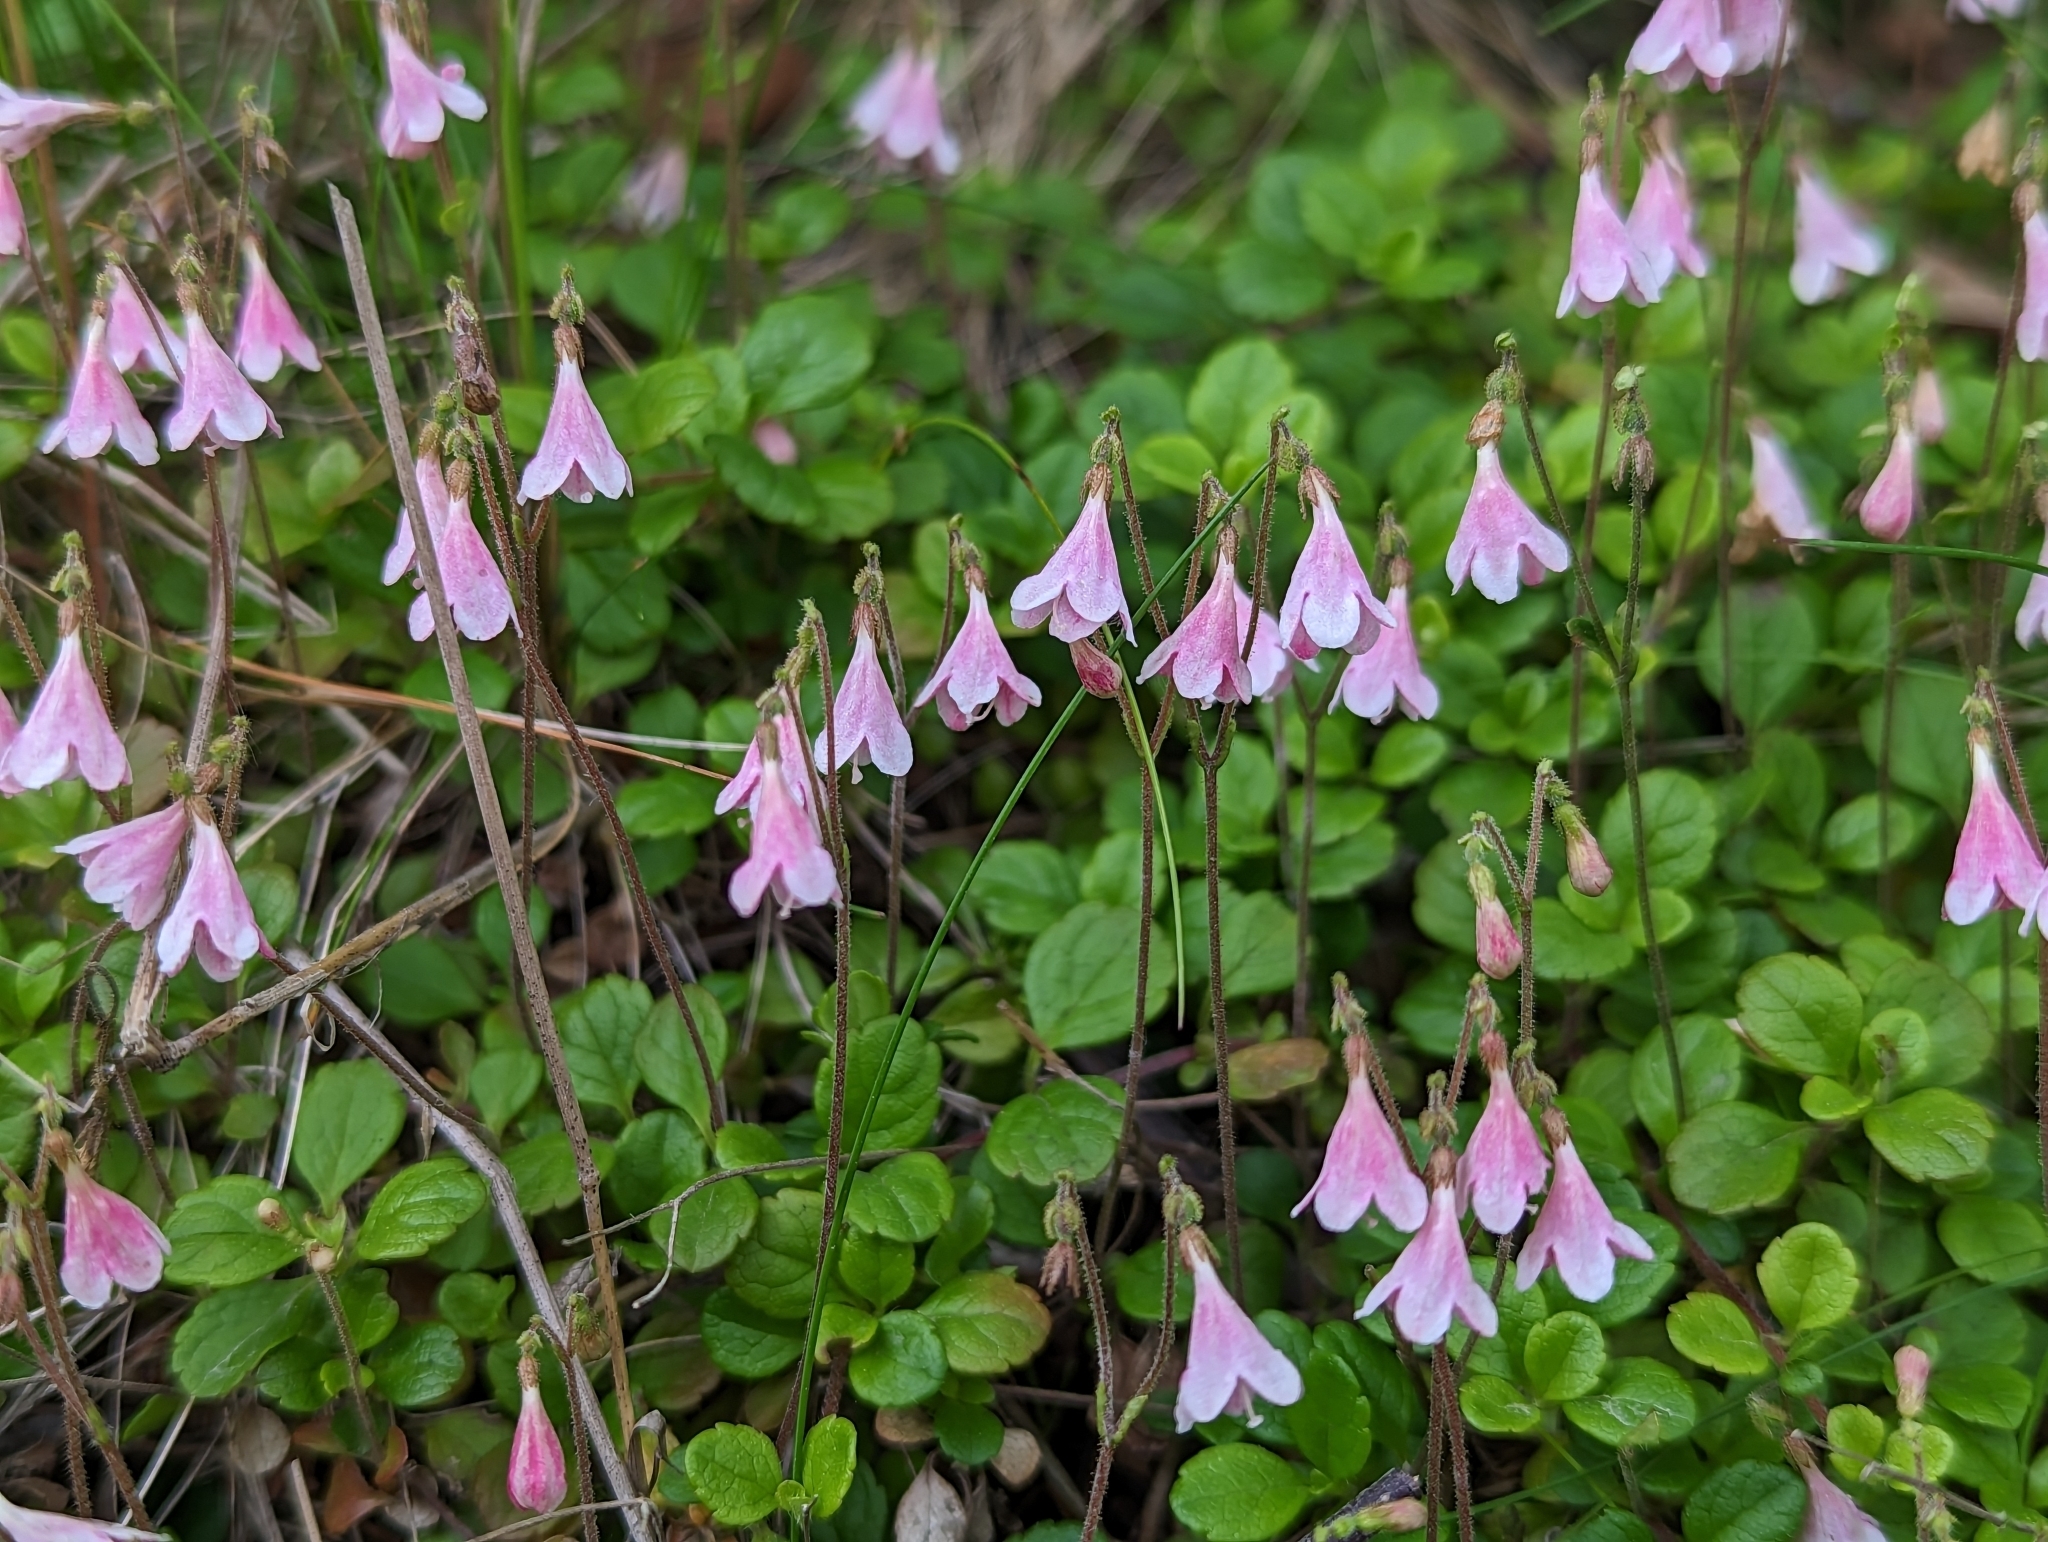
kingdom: Plantae
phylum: Tracheophyta
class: Magnoliopsida
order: Dipsacales
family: Caprifoliaceae
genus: Linnaea
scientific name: Linnaea borealis
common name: Twinflower
